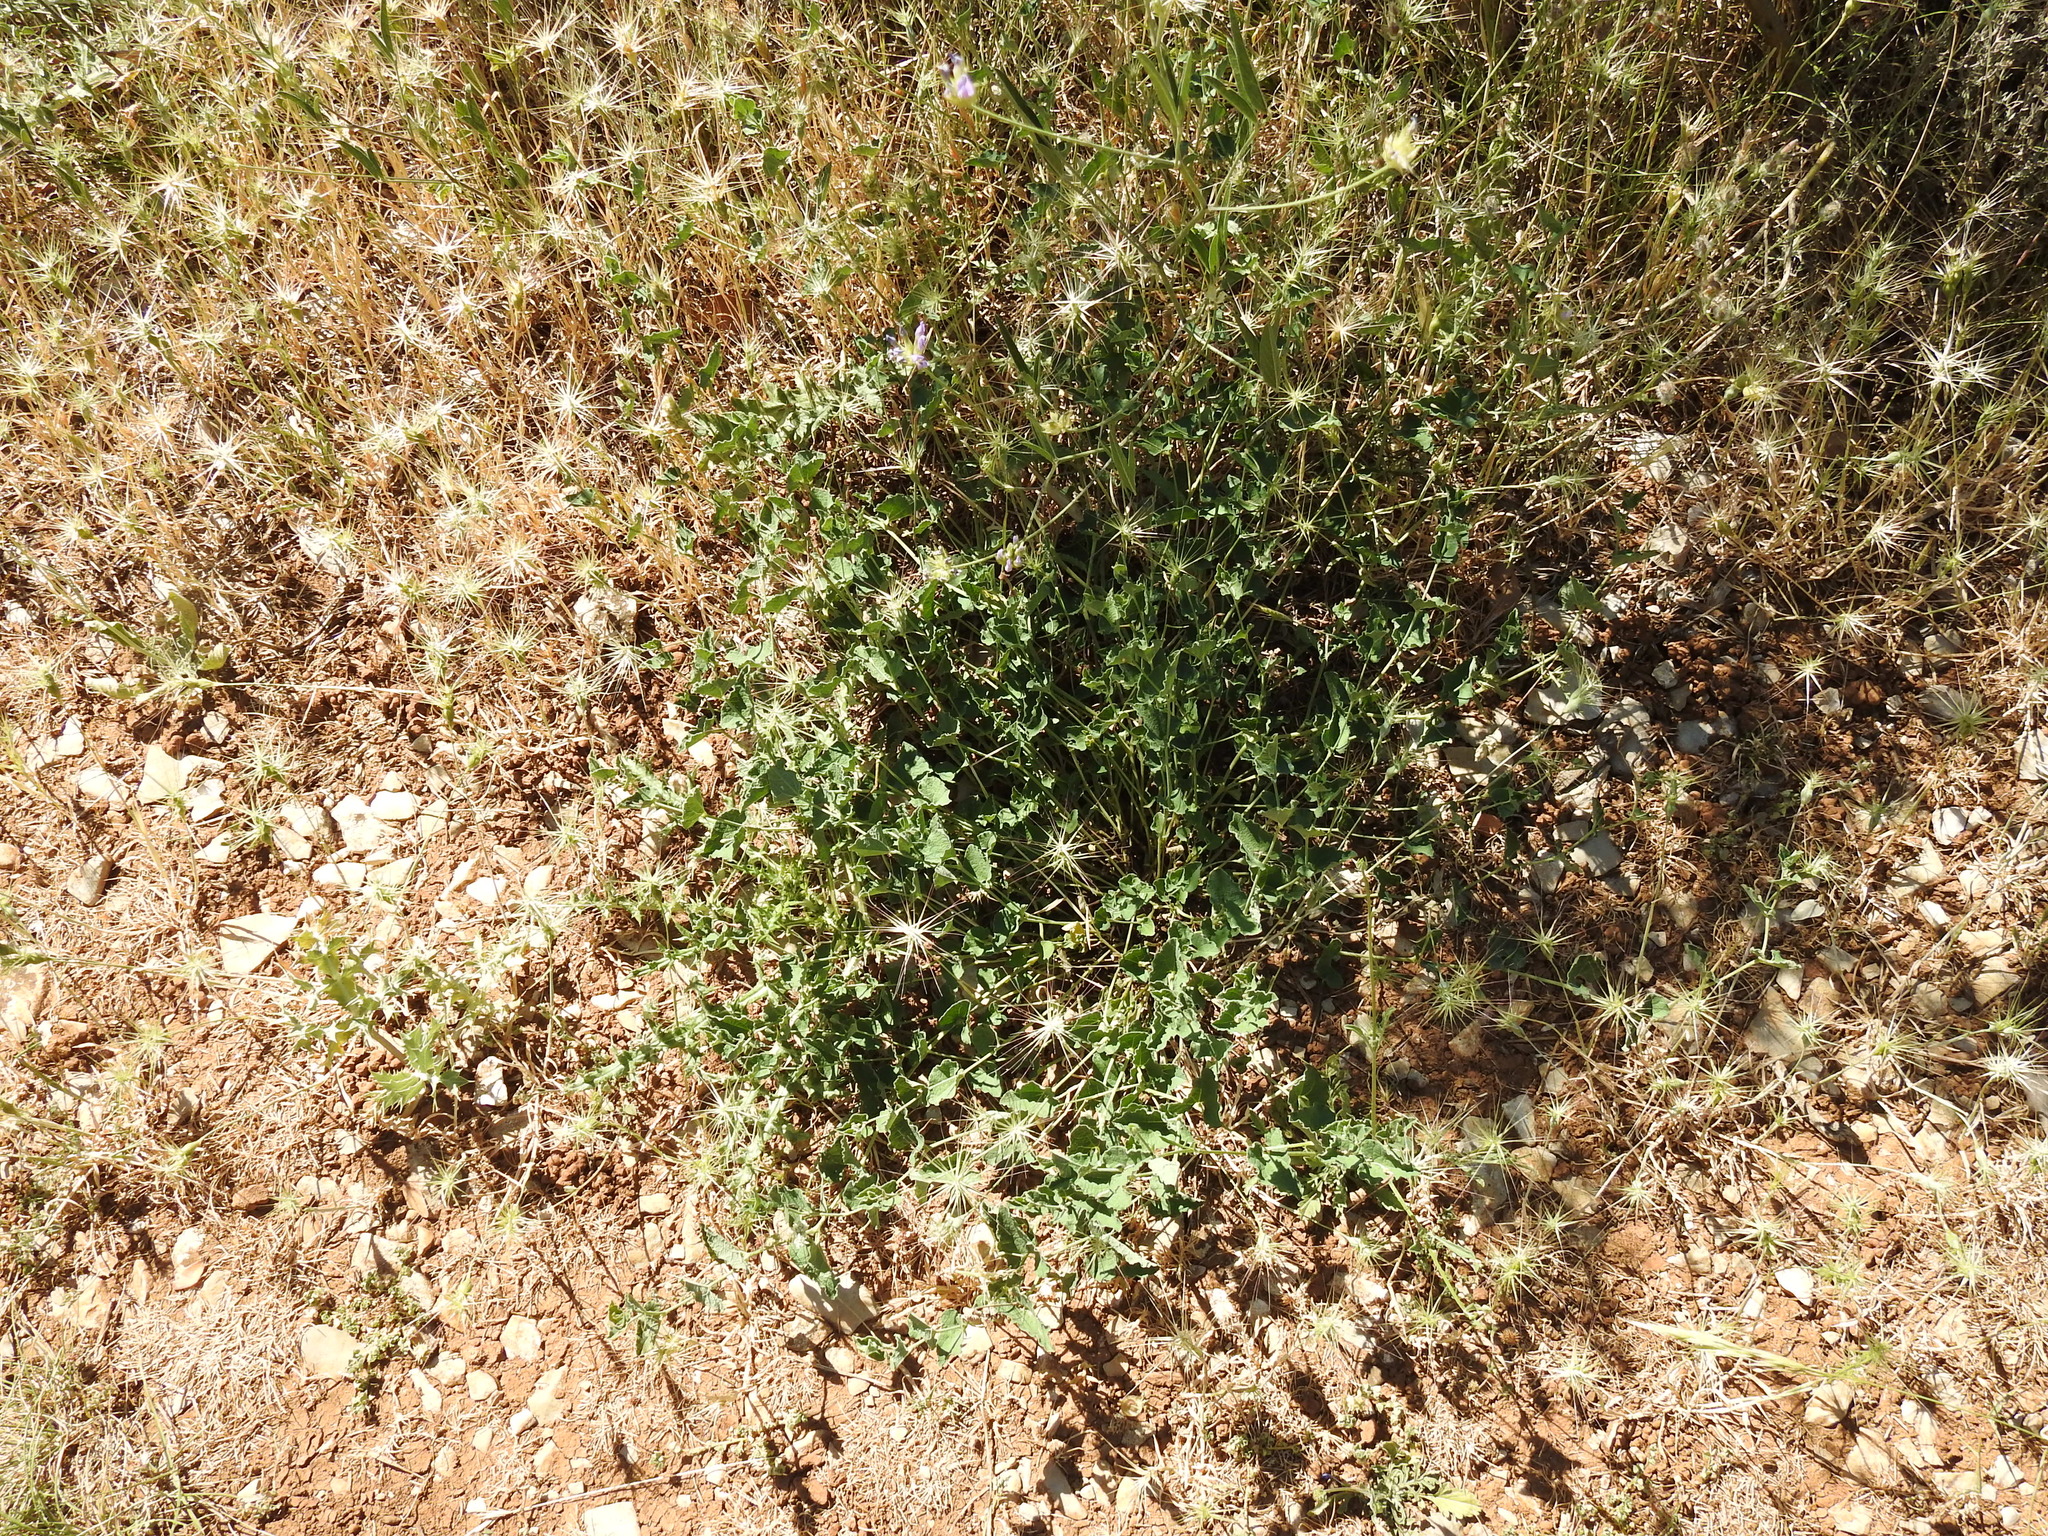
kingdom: Plantae
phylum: Tracheophyta
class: Magnoliopsida
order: Piperales
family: Aristolochiaceae
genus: Aristolochia
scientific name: Aristolochia pistolochia
